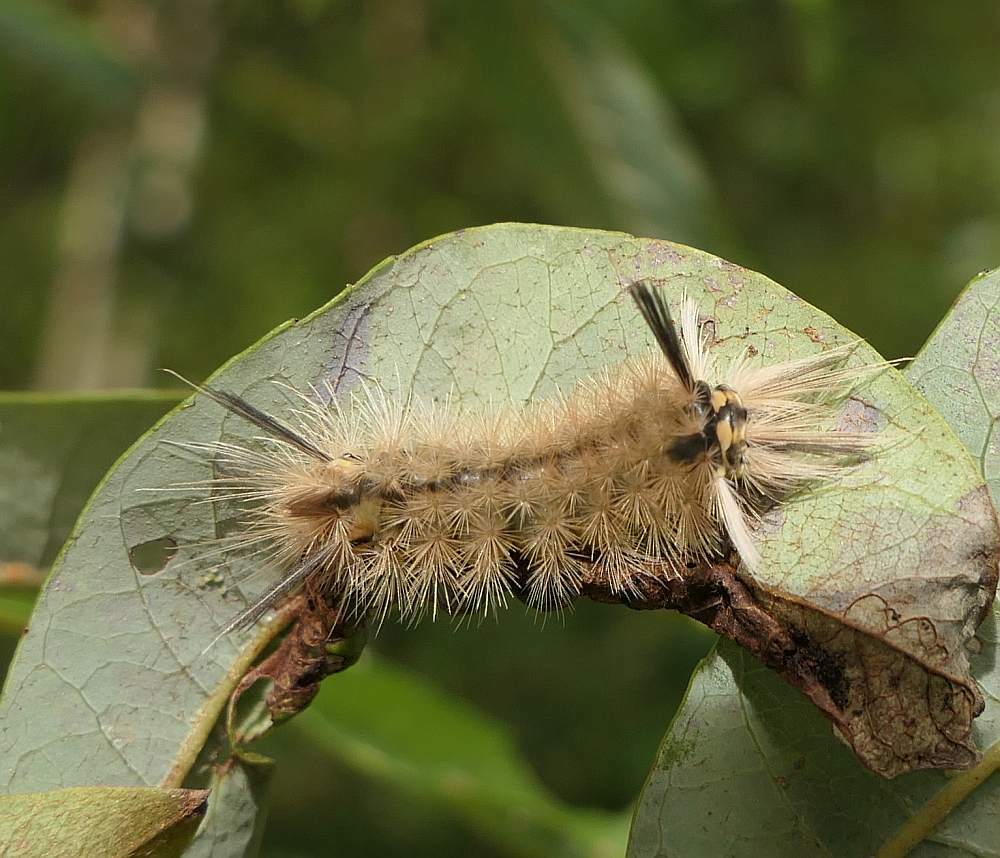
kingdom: Animalia
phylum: Arthropoda
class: Insecta
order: Lepidoptera
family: Erebidae
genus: Halysidota
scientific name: Halysidota tessellaris
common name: Banded tussock moth
